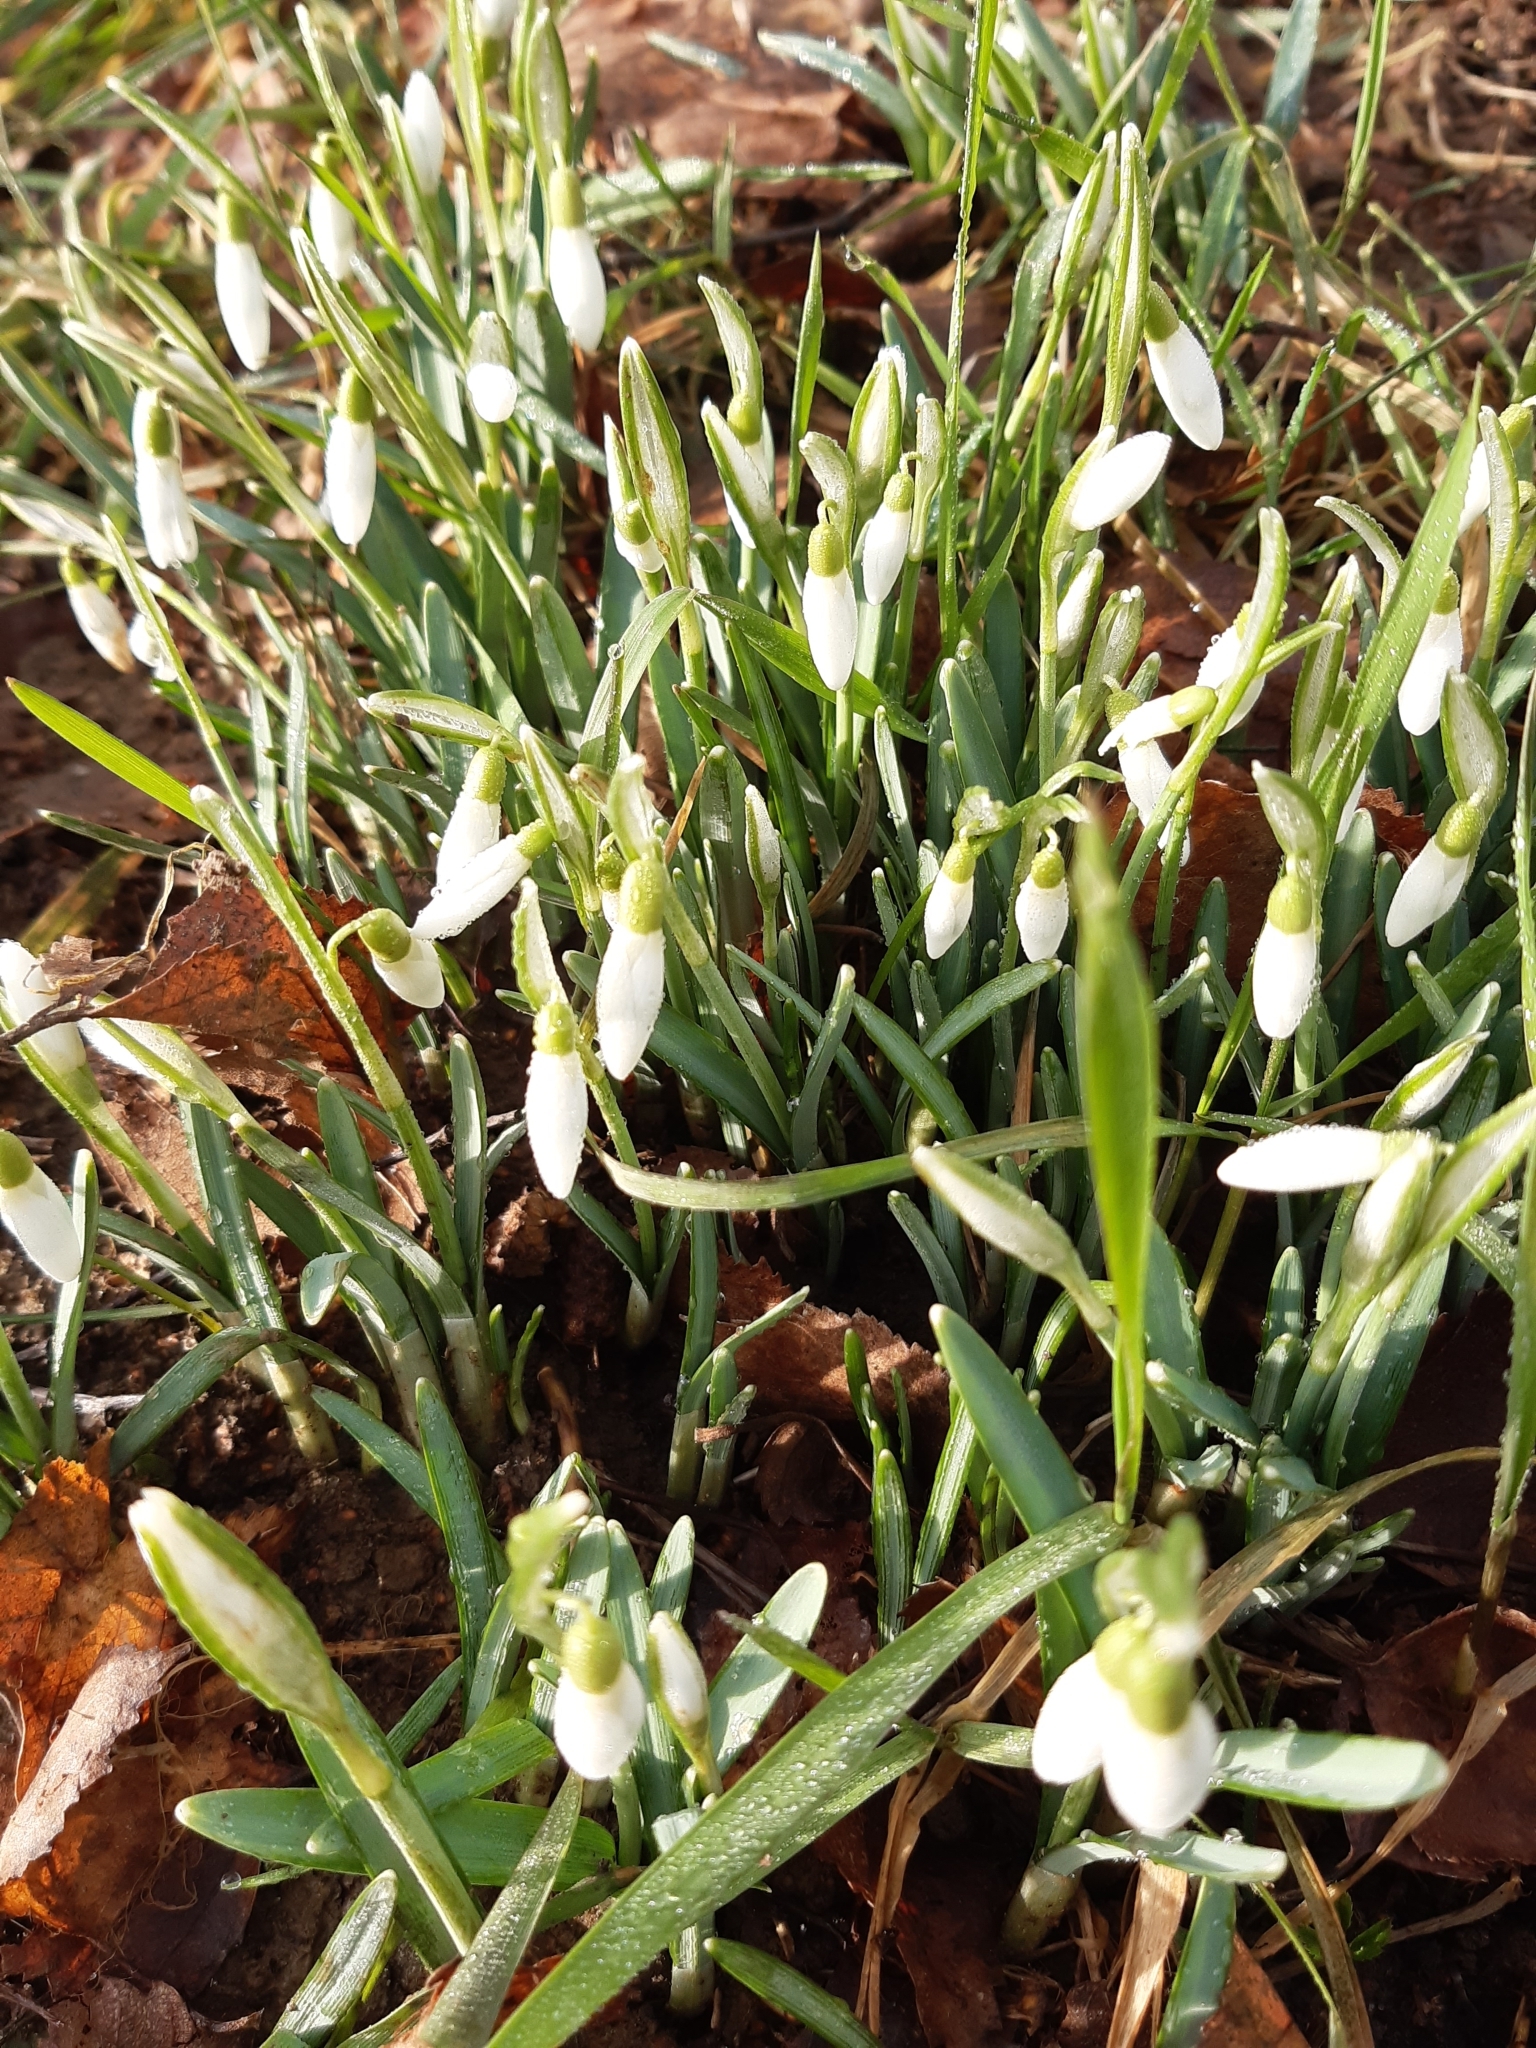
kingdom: Plantae
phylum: Tracheophyta
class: Liliopsida
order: Asparagales
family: Amaryllidaceae
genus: Galanthus
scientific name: Galanthus nivalis
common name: Snowdrop
